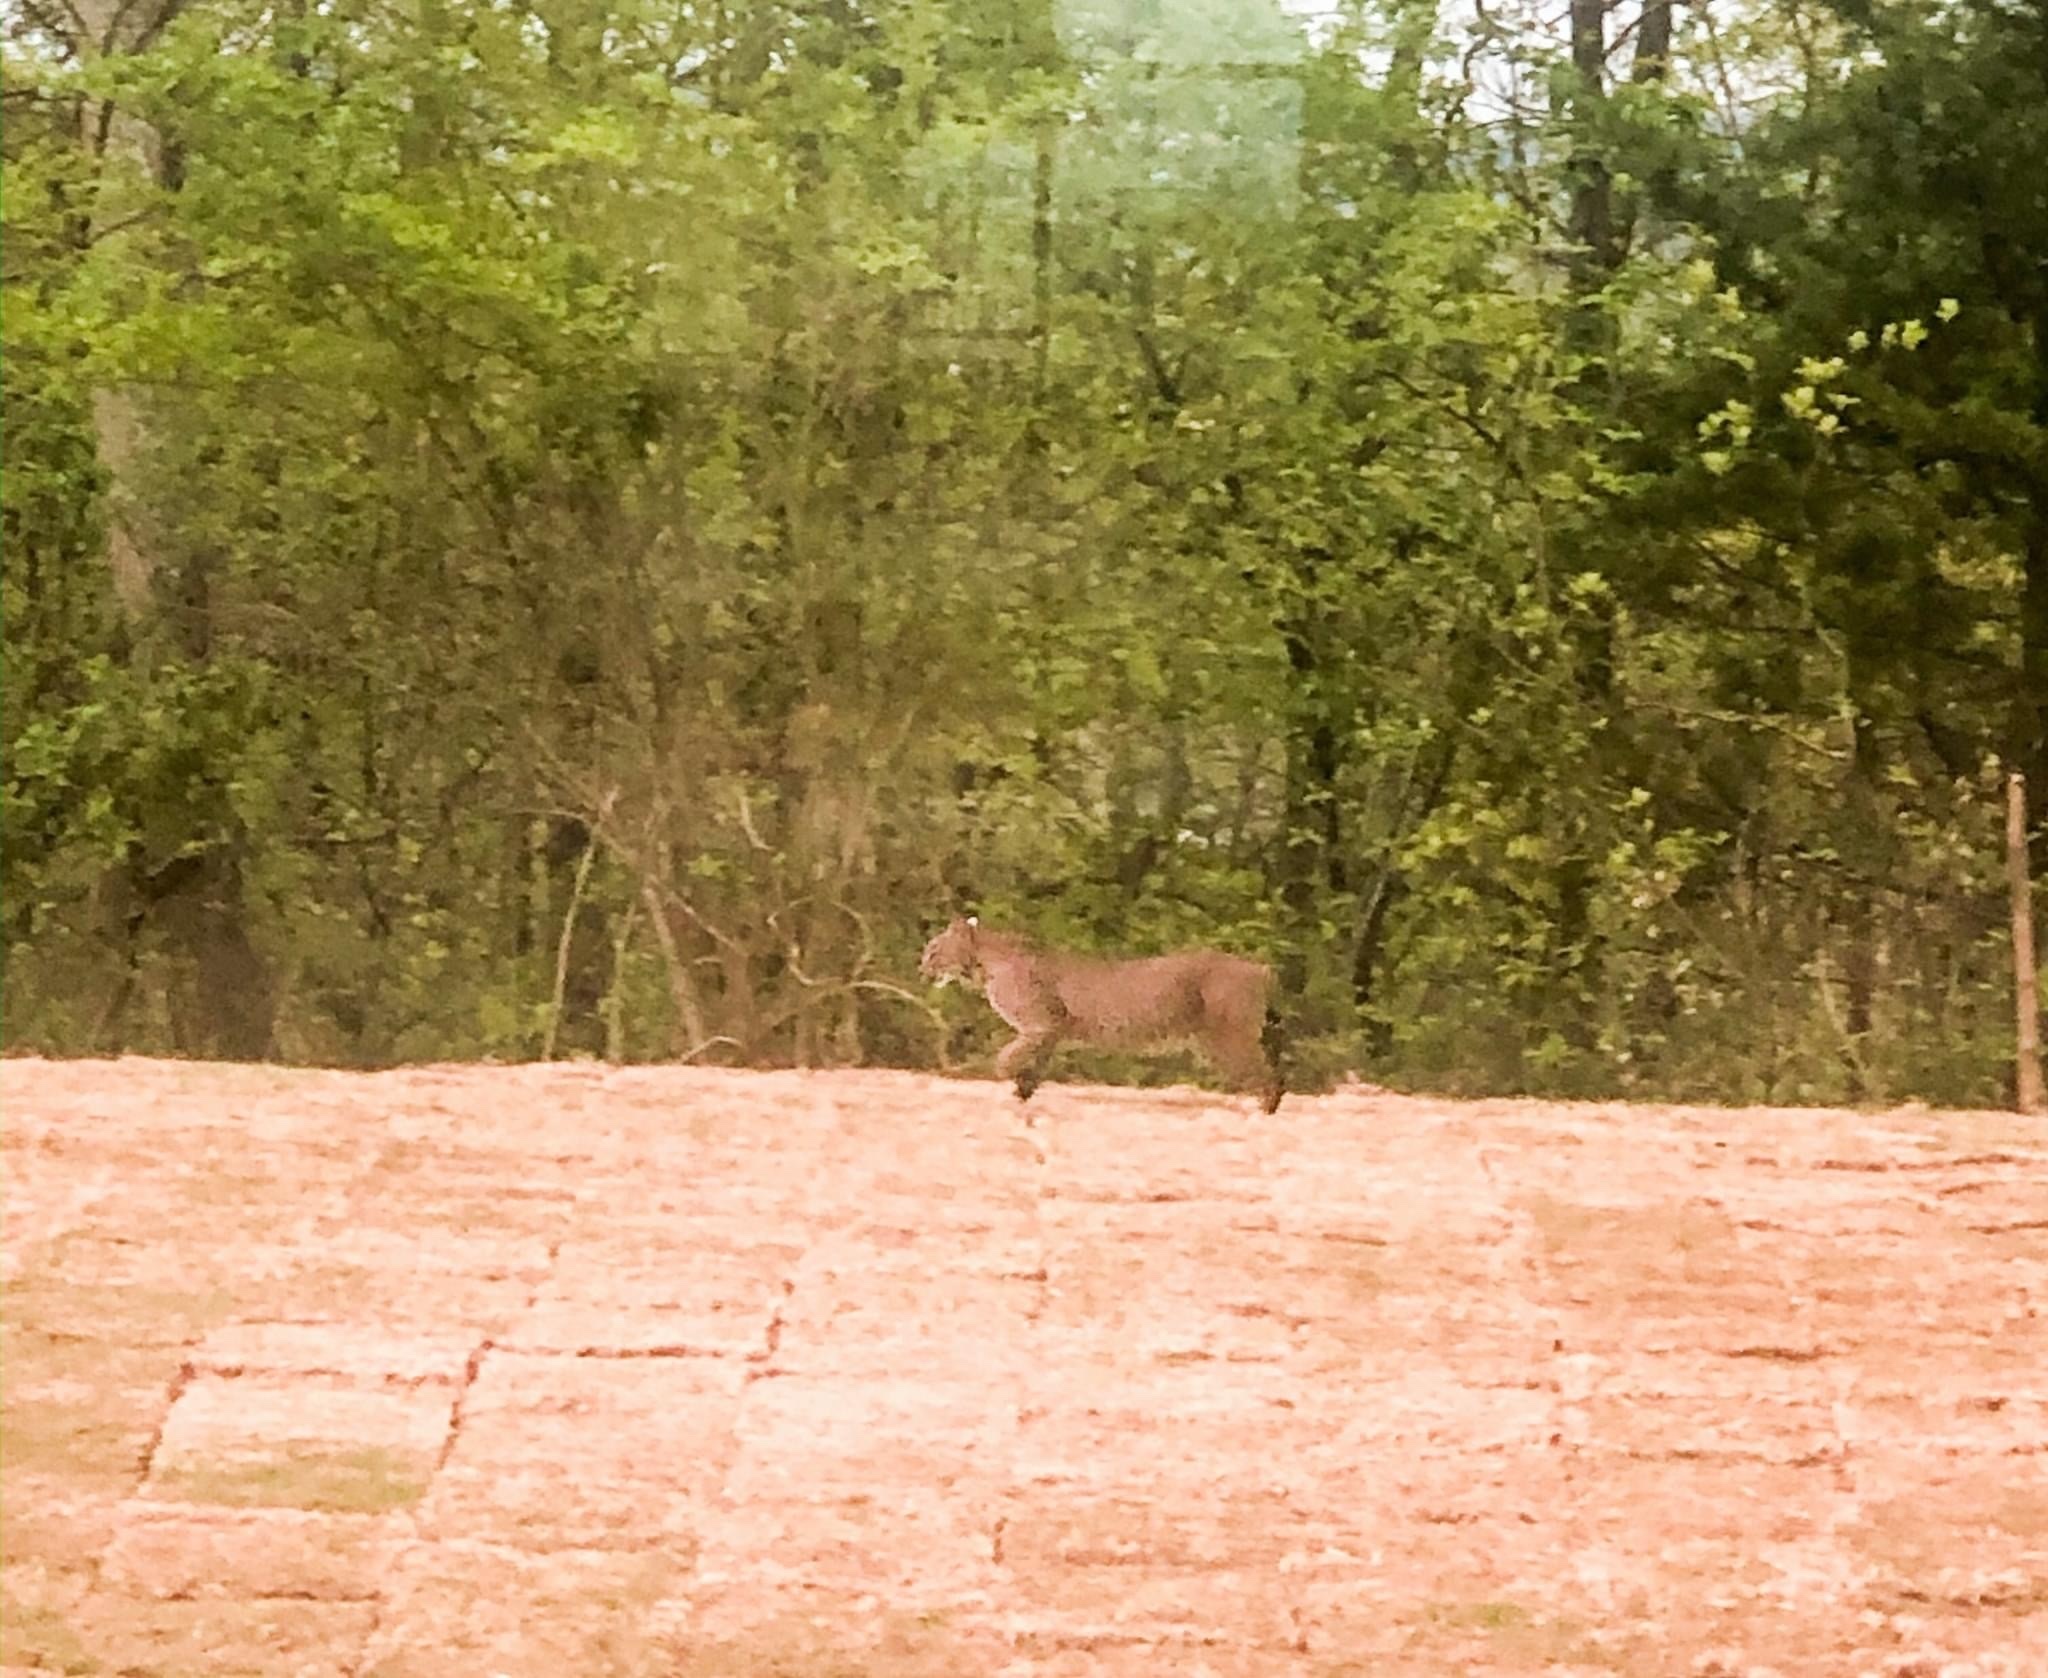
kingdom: Animalia
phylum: Chordata
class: Mammalia
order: Carnivora
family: Felidae
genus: Lynx
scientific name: Lynx rufus
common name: Bobcat
